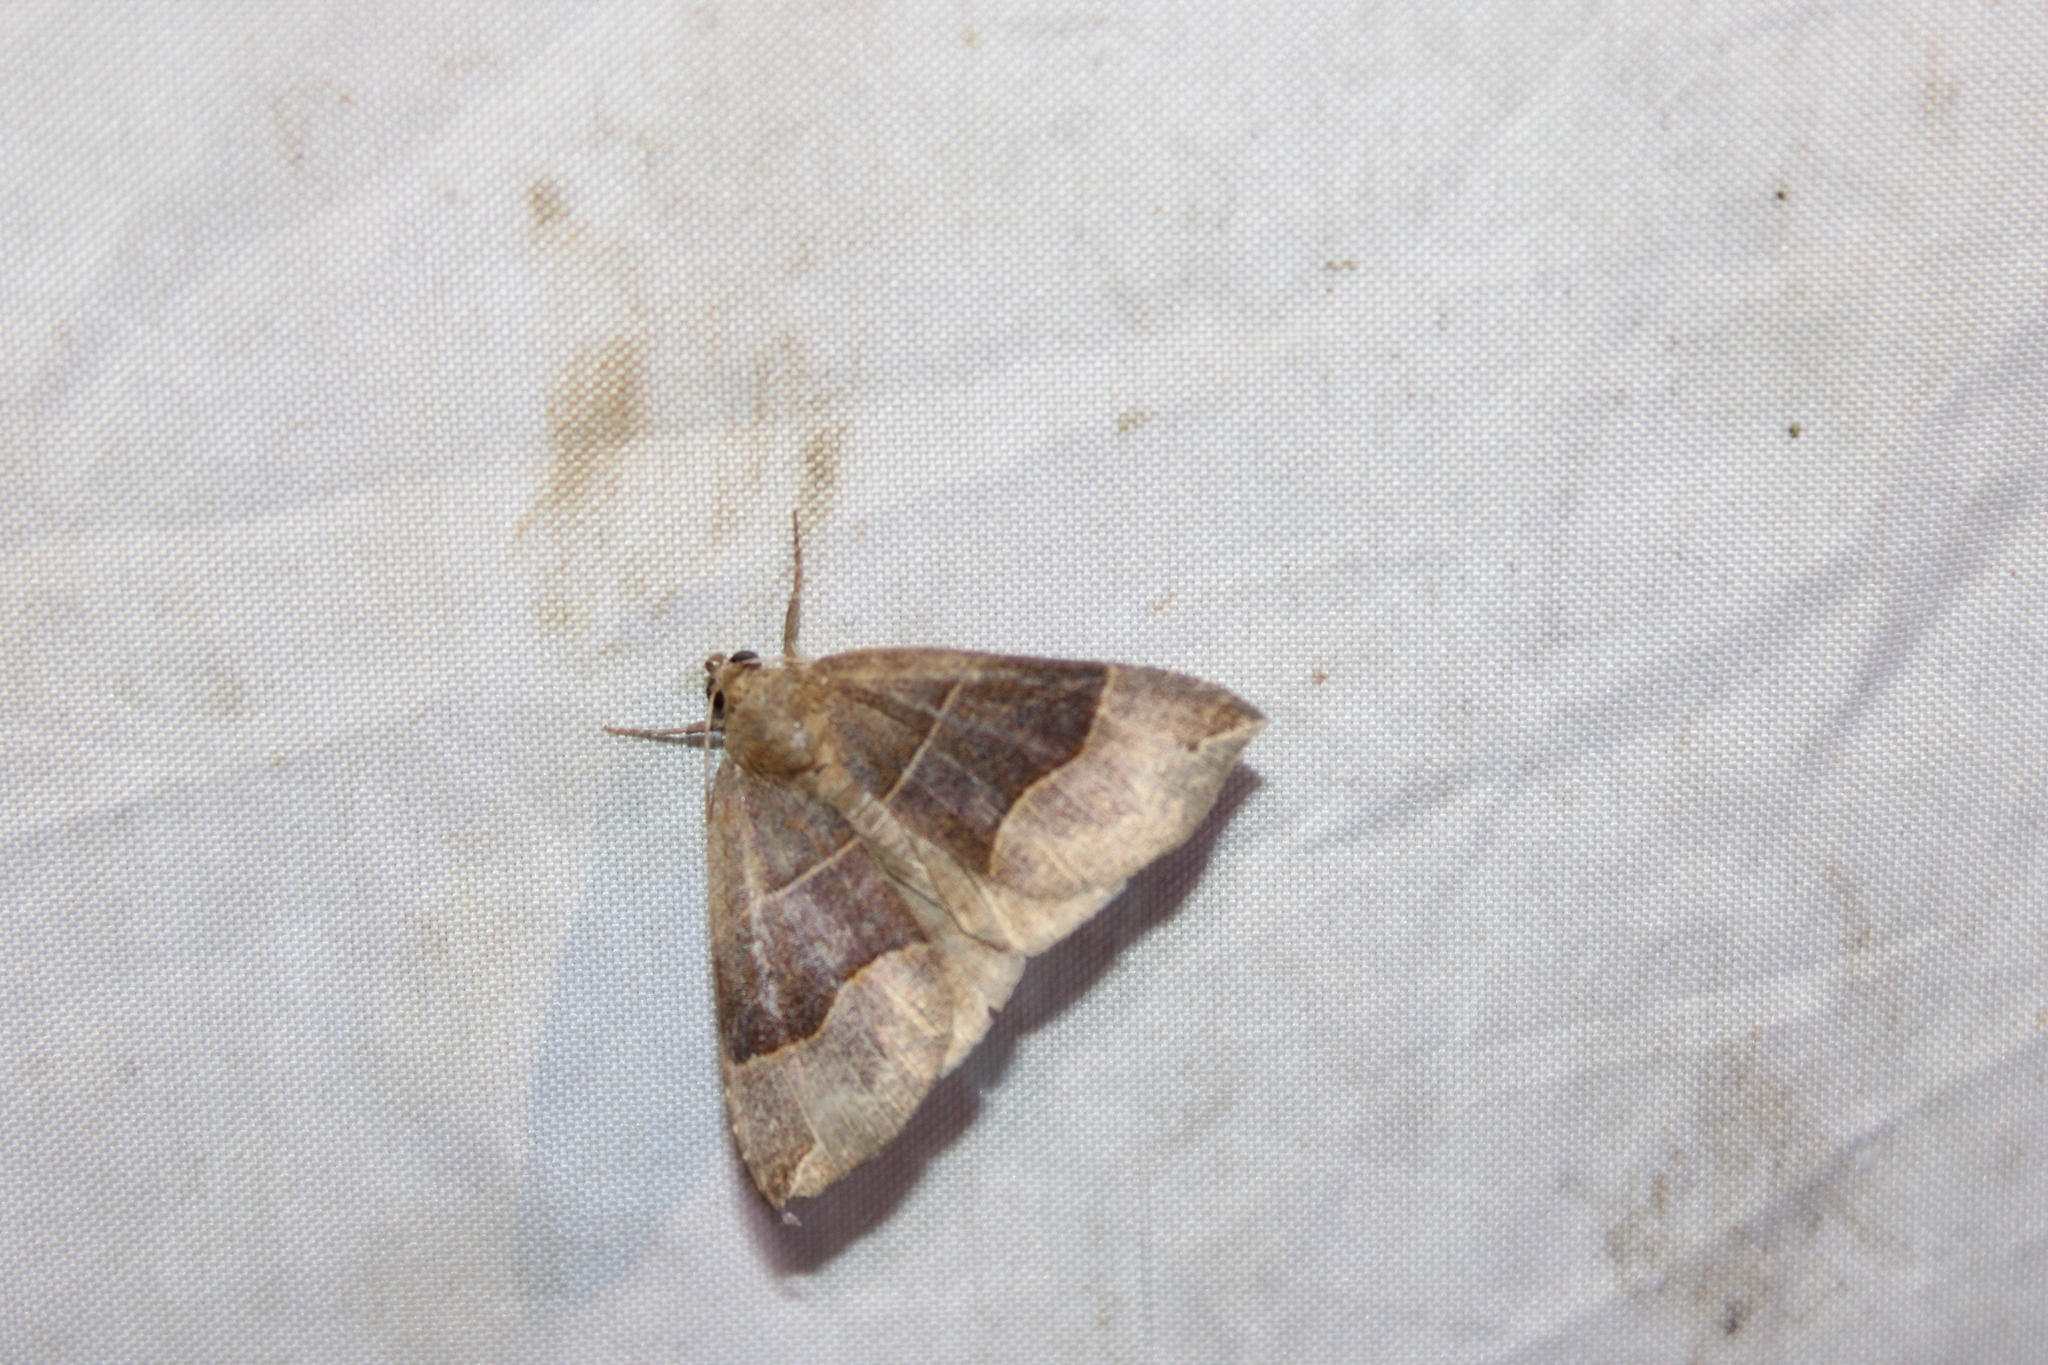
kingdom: Animalia
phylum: Arthropoda
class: Insecta
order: Lepidoptera
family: Erebidae
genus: Parallelia
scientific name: Parallelia bistriaris
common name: Maple looper moth
